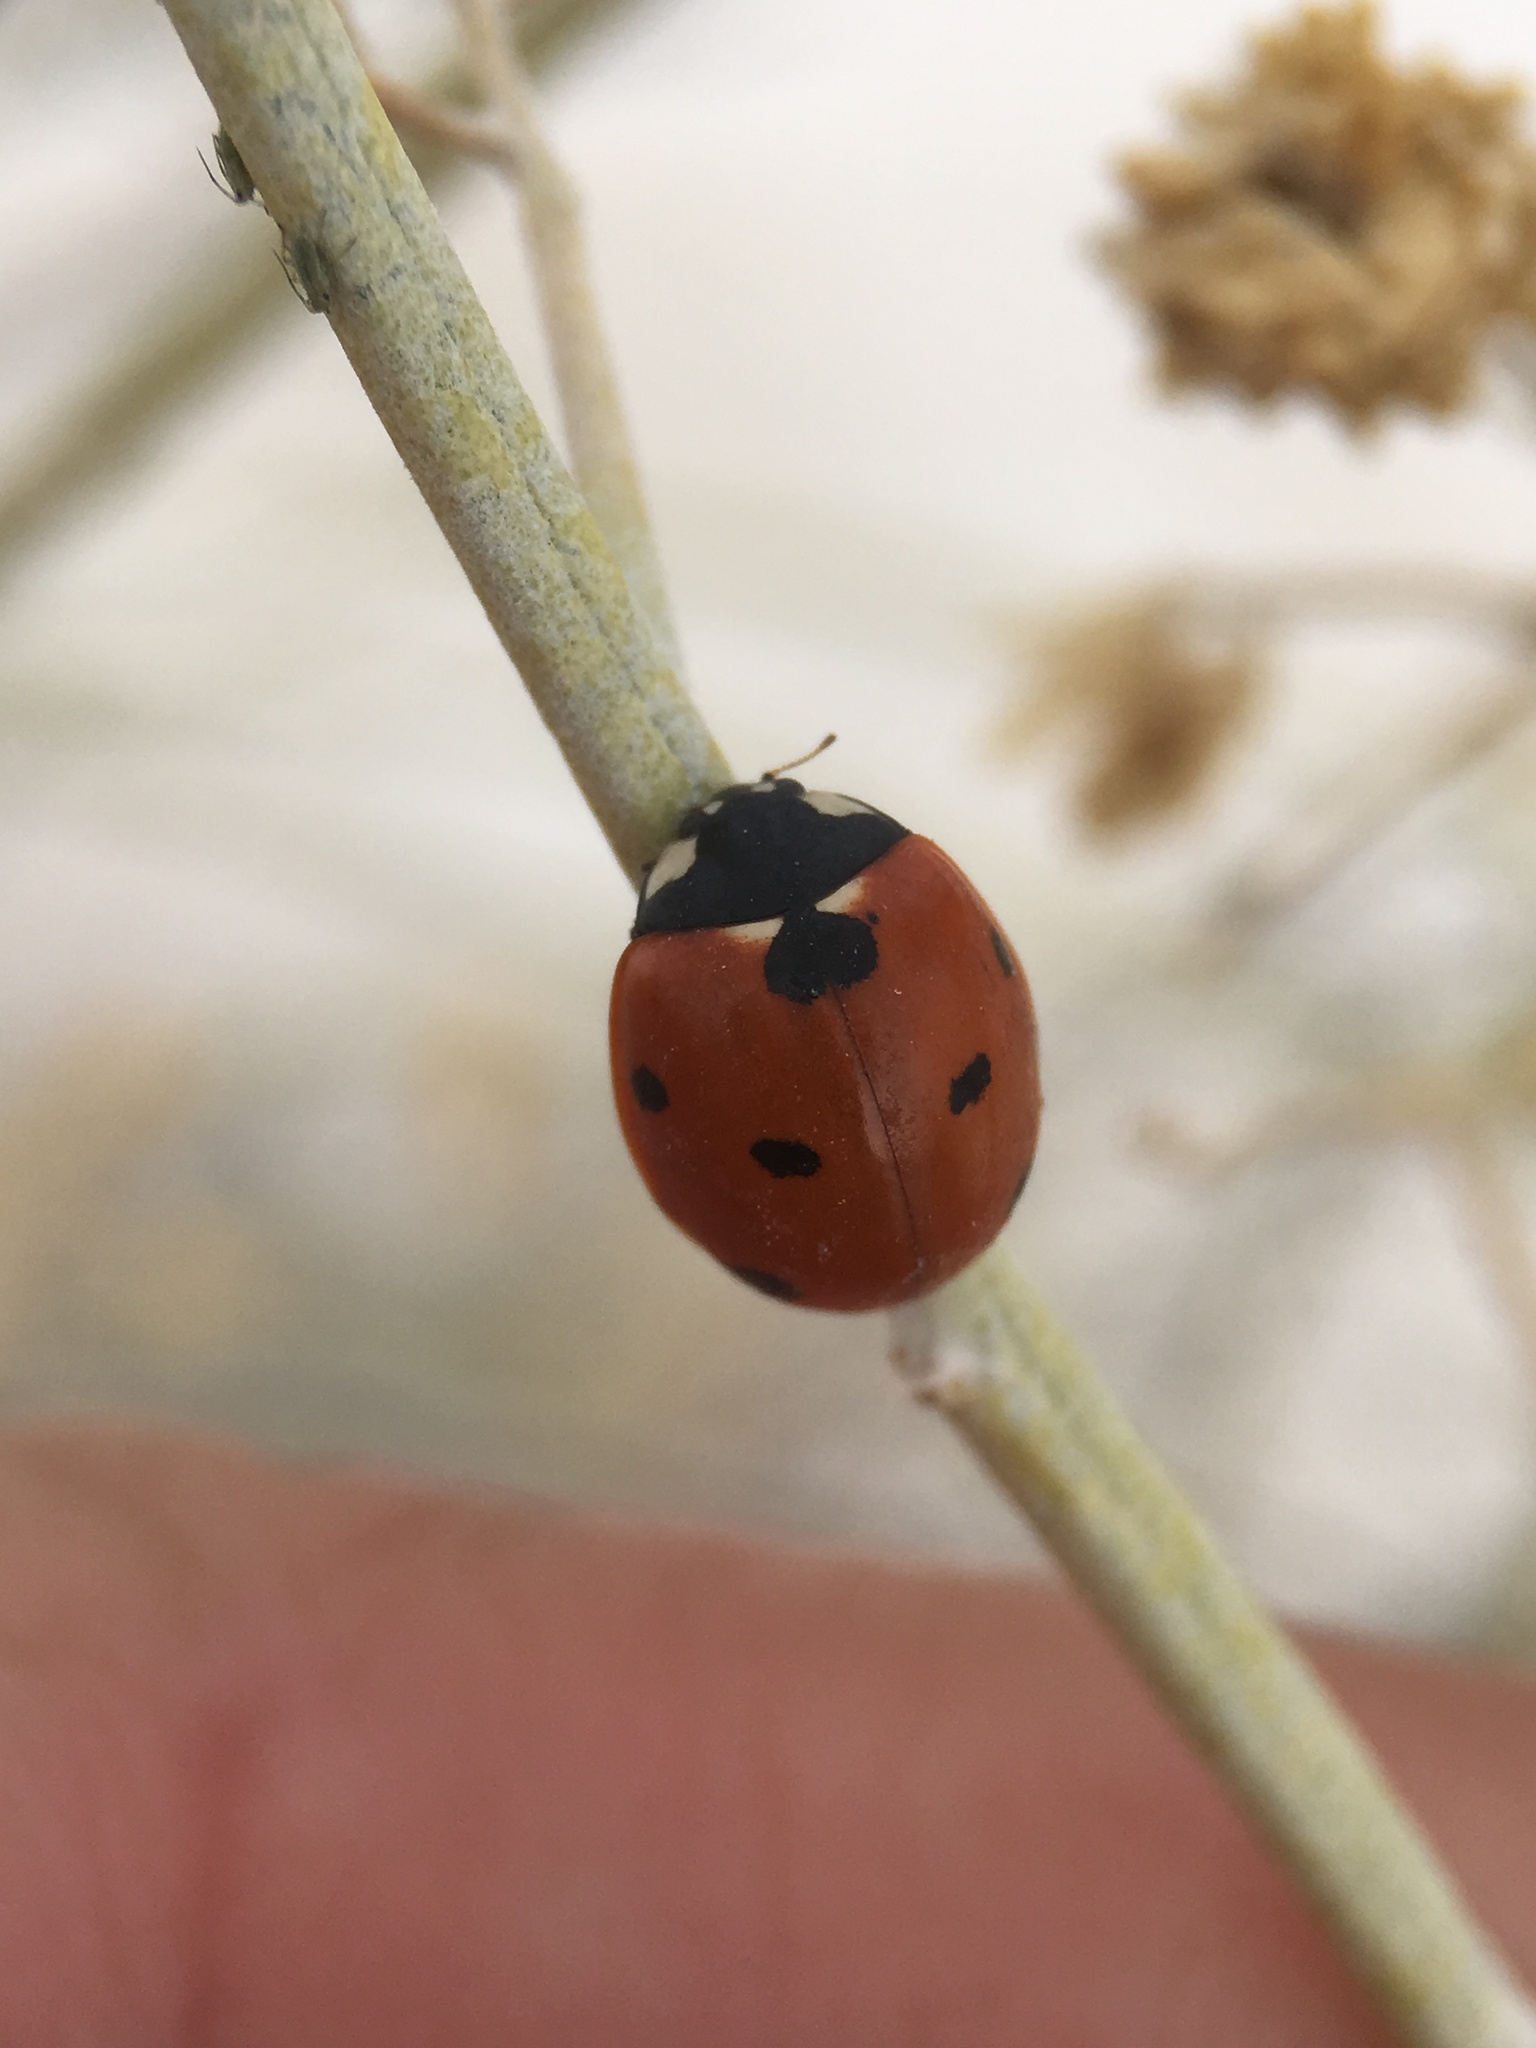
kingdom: Animalia
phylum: Arthropoda
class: Insecta
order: Coleoptera
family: Coccinellidae
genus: Coccinella
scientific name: Coccinella septempunctata
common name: Sevenspotted lady beetle
